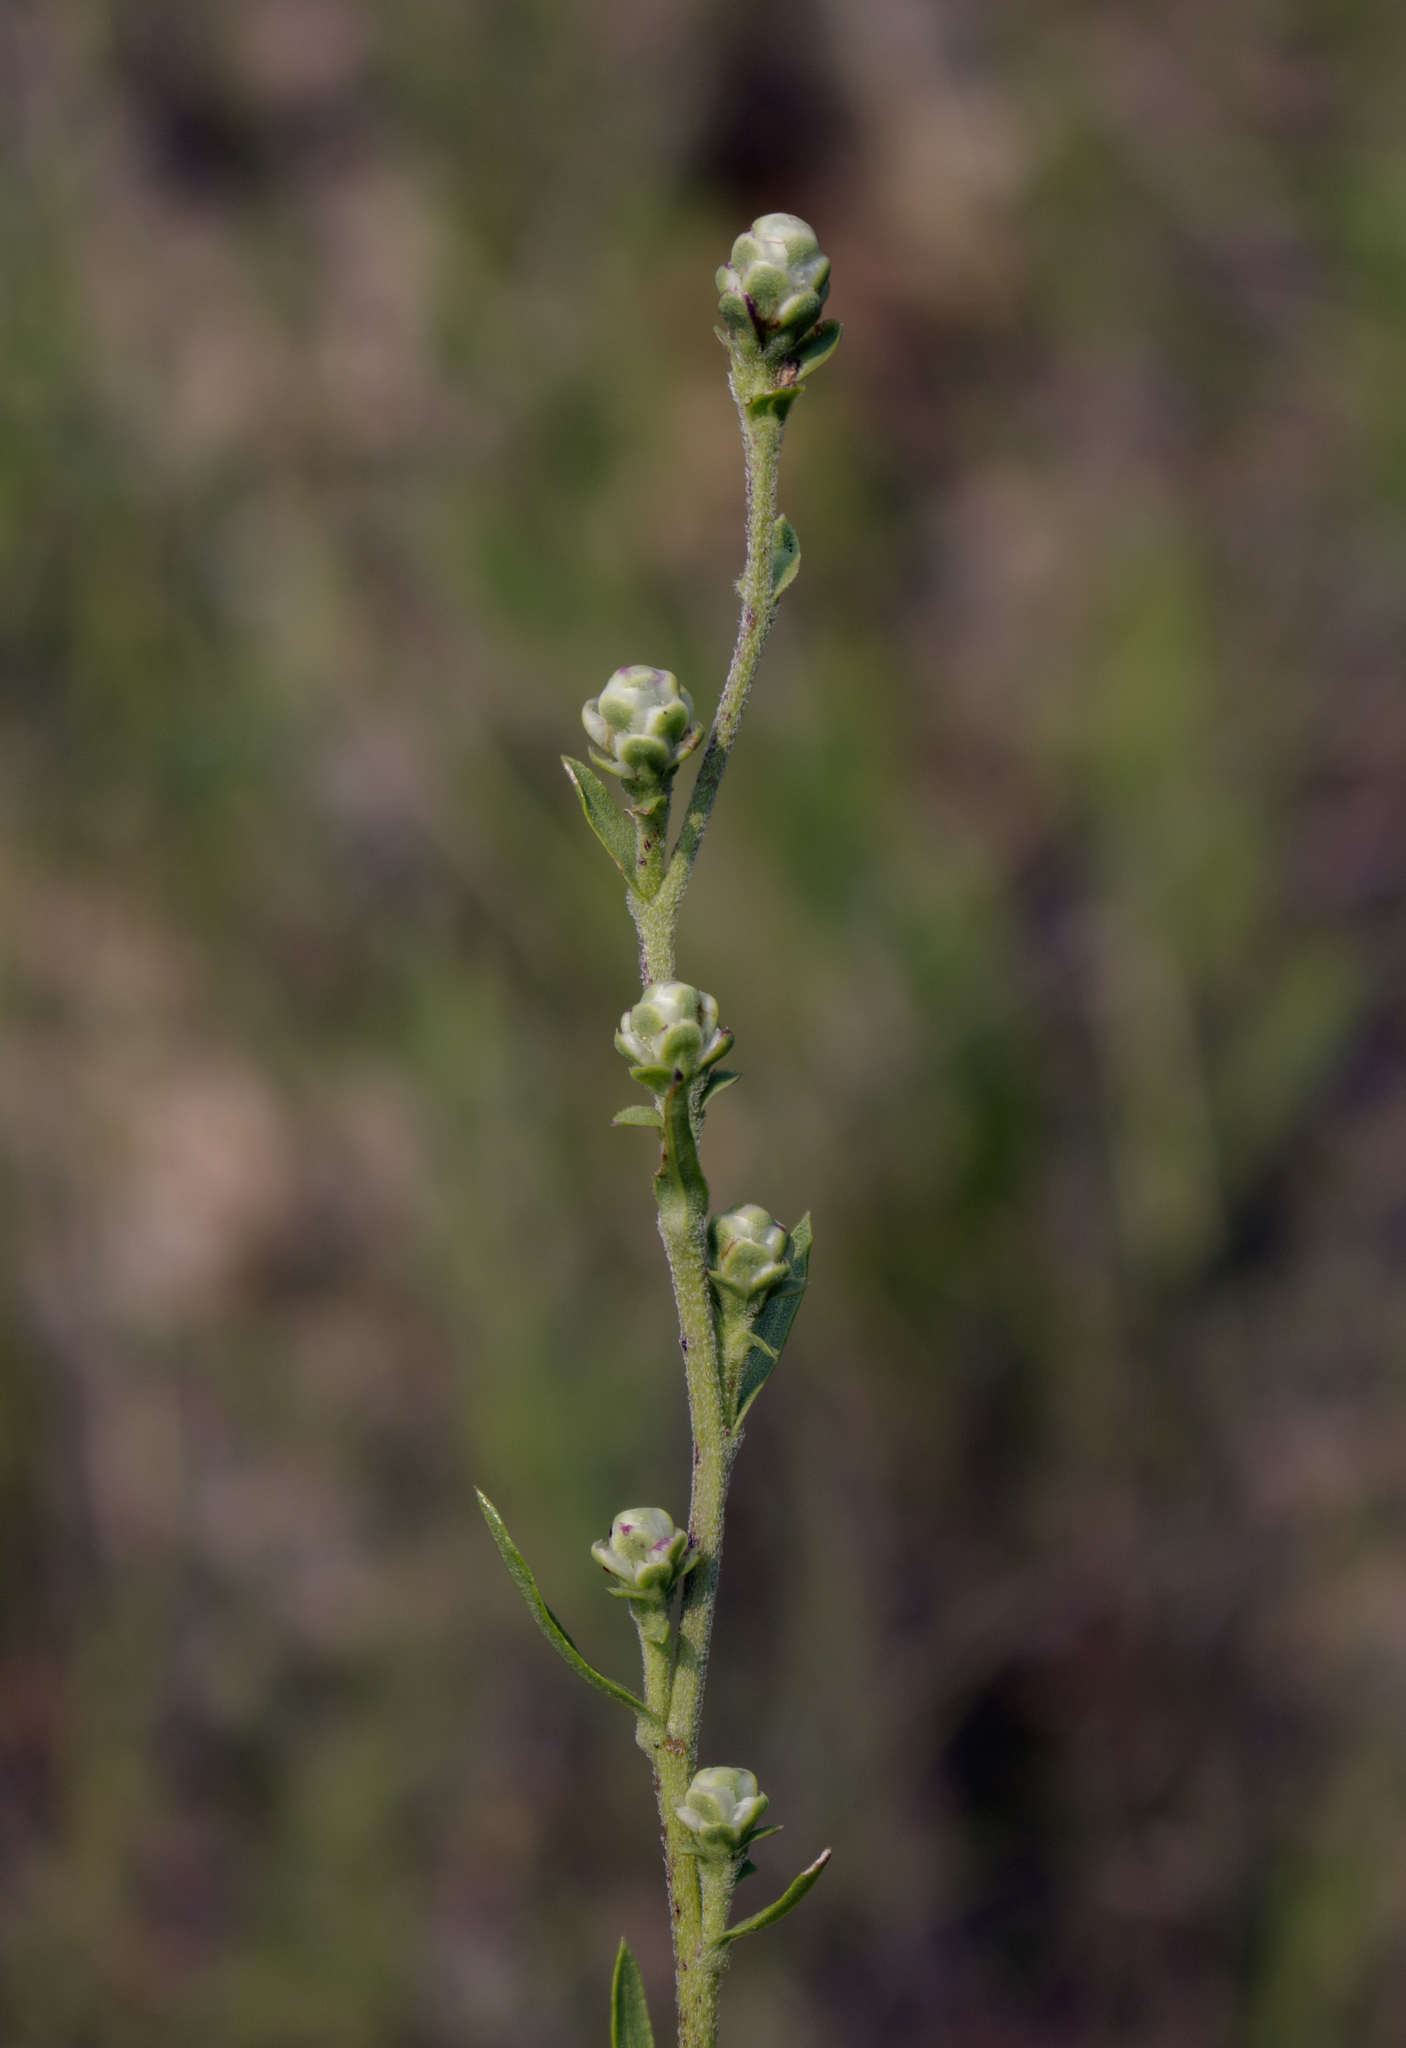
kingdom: Plantae
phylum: Tracheophyta
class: Magnoliopsida
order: Asterales
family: Asteraceae
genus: Liatris
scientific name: Liatris aspera
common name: Lacerate blazing-star
